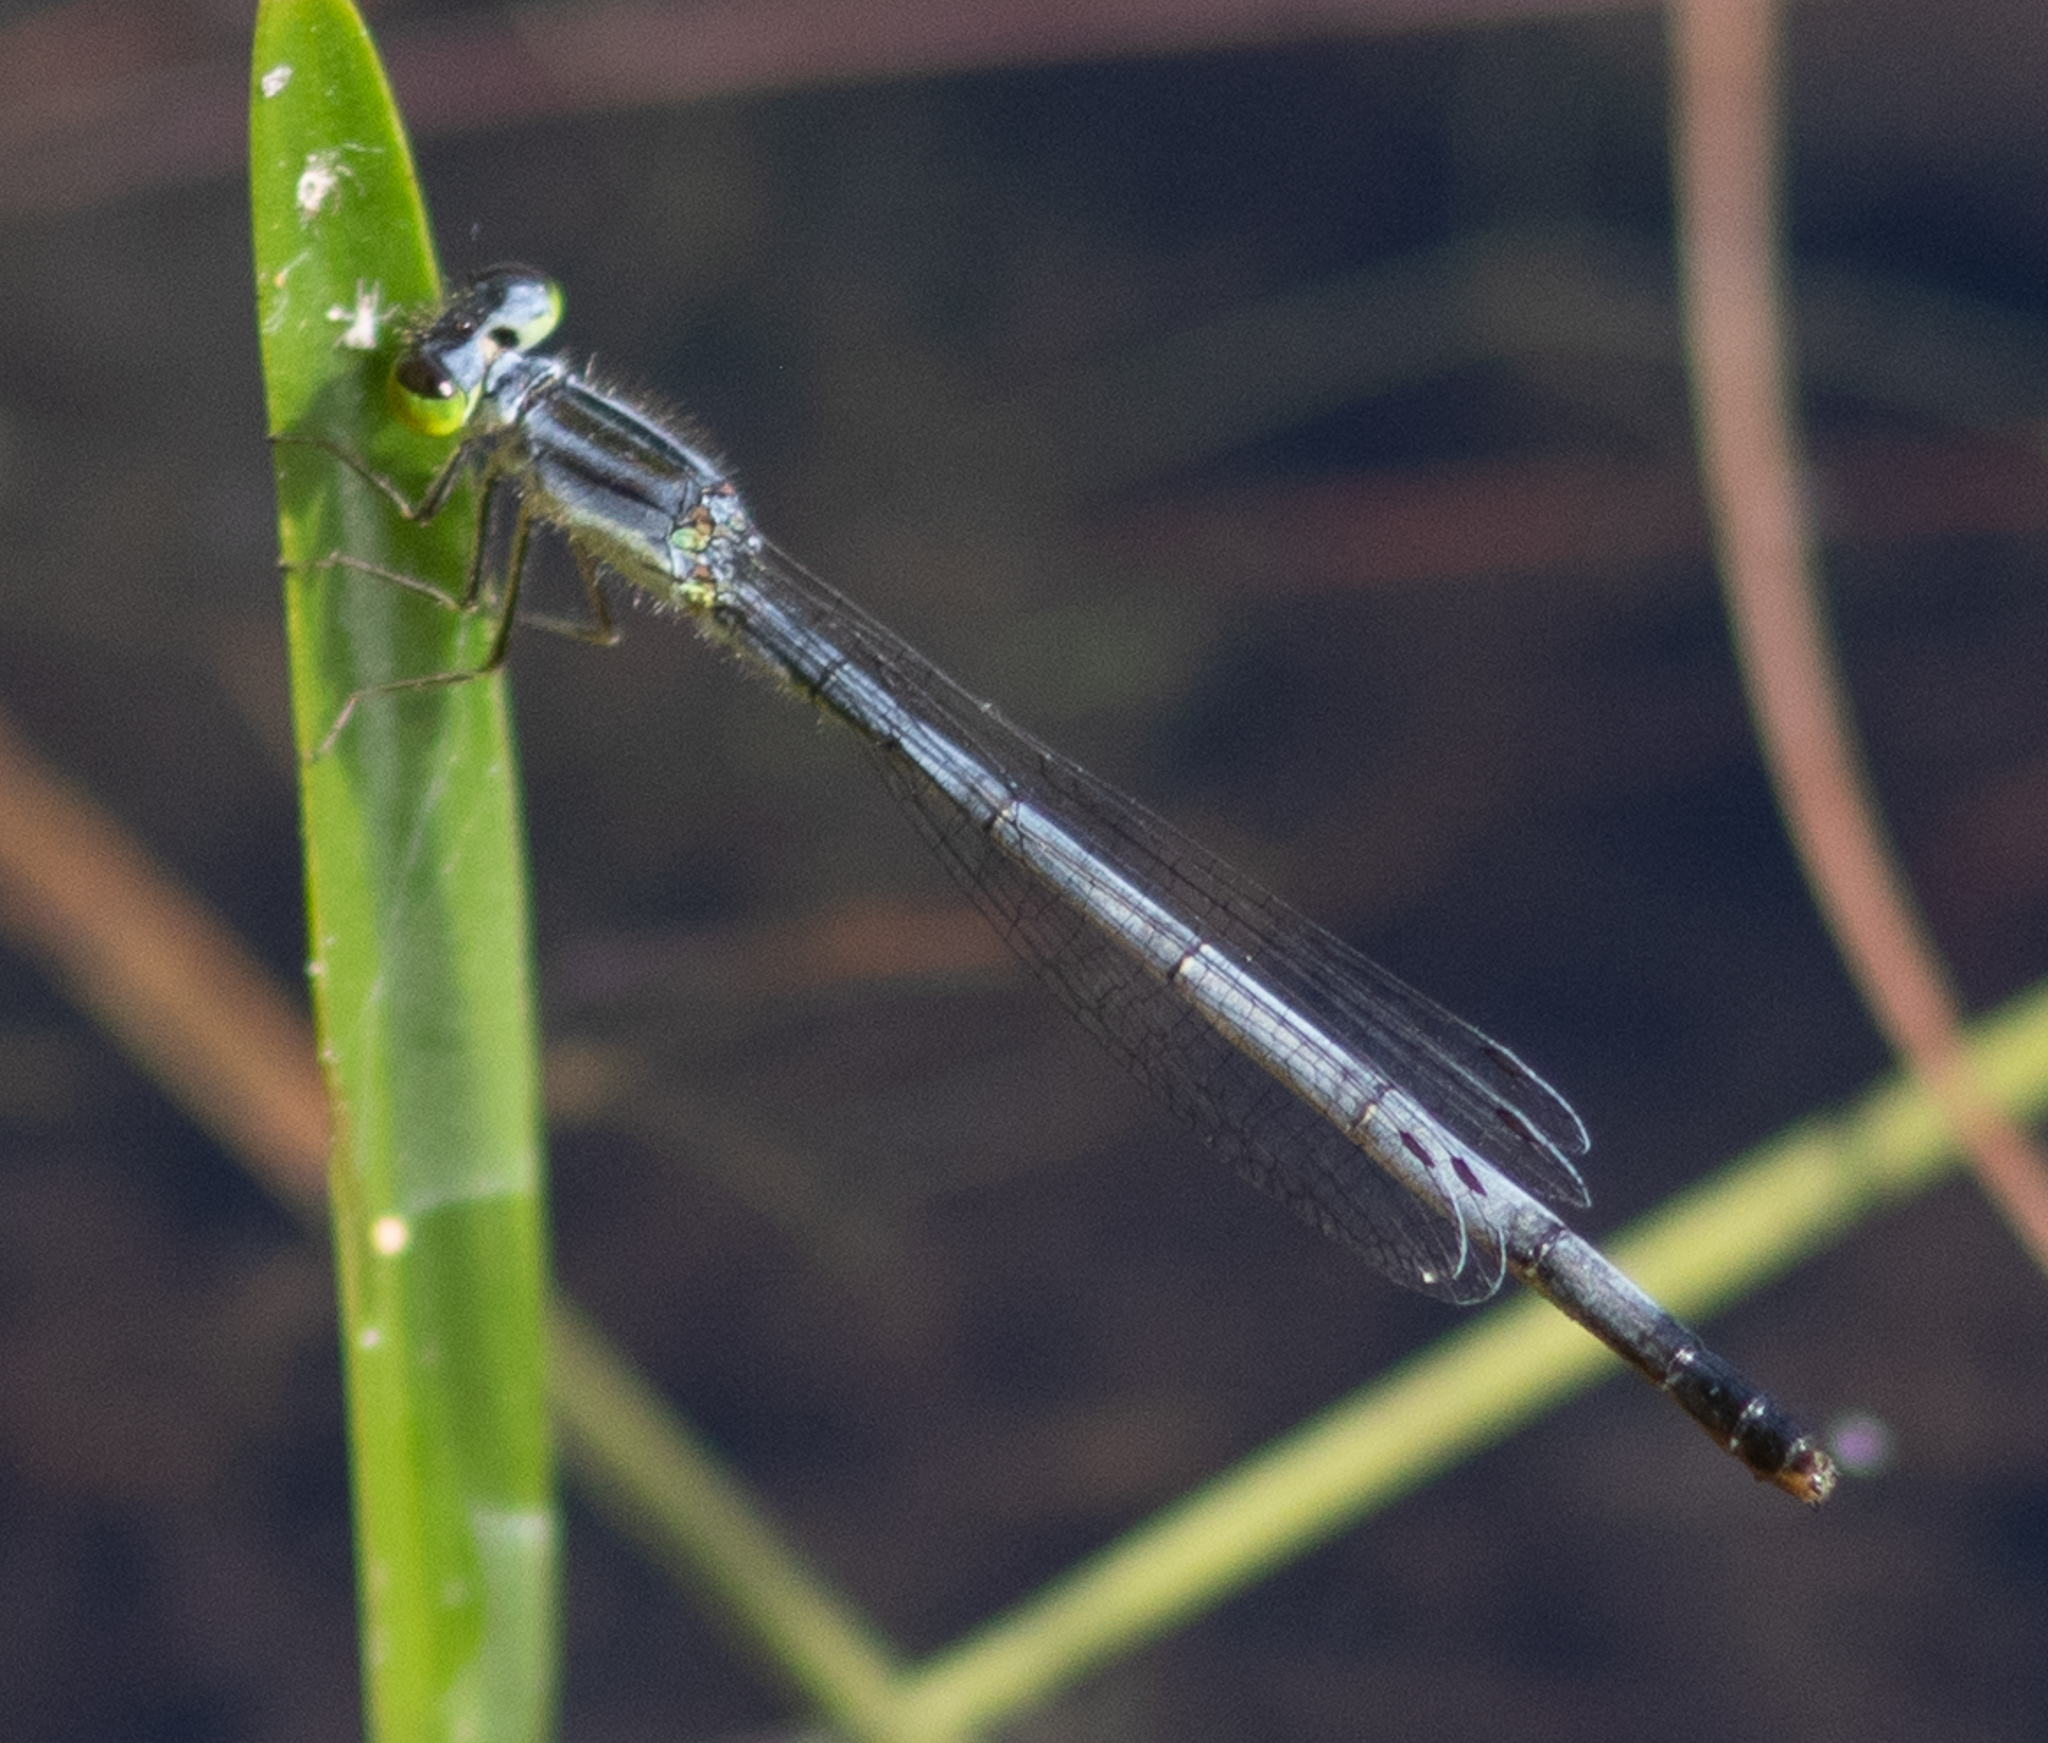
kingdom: Animalia
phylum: Arthropoda
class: Insecta
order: Odonata
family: Coenagrionidae
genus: Ischnura
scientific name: Ischnura verticalis
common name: Eastern forktail
